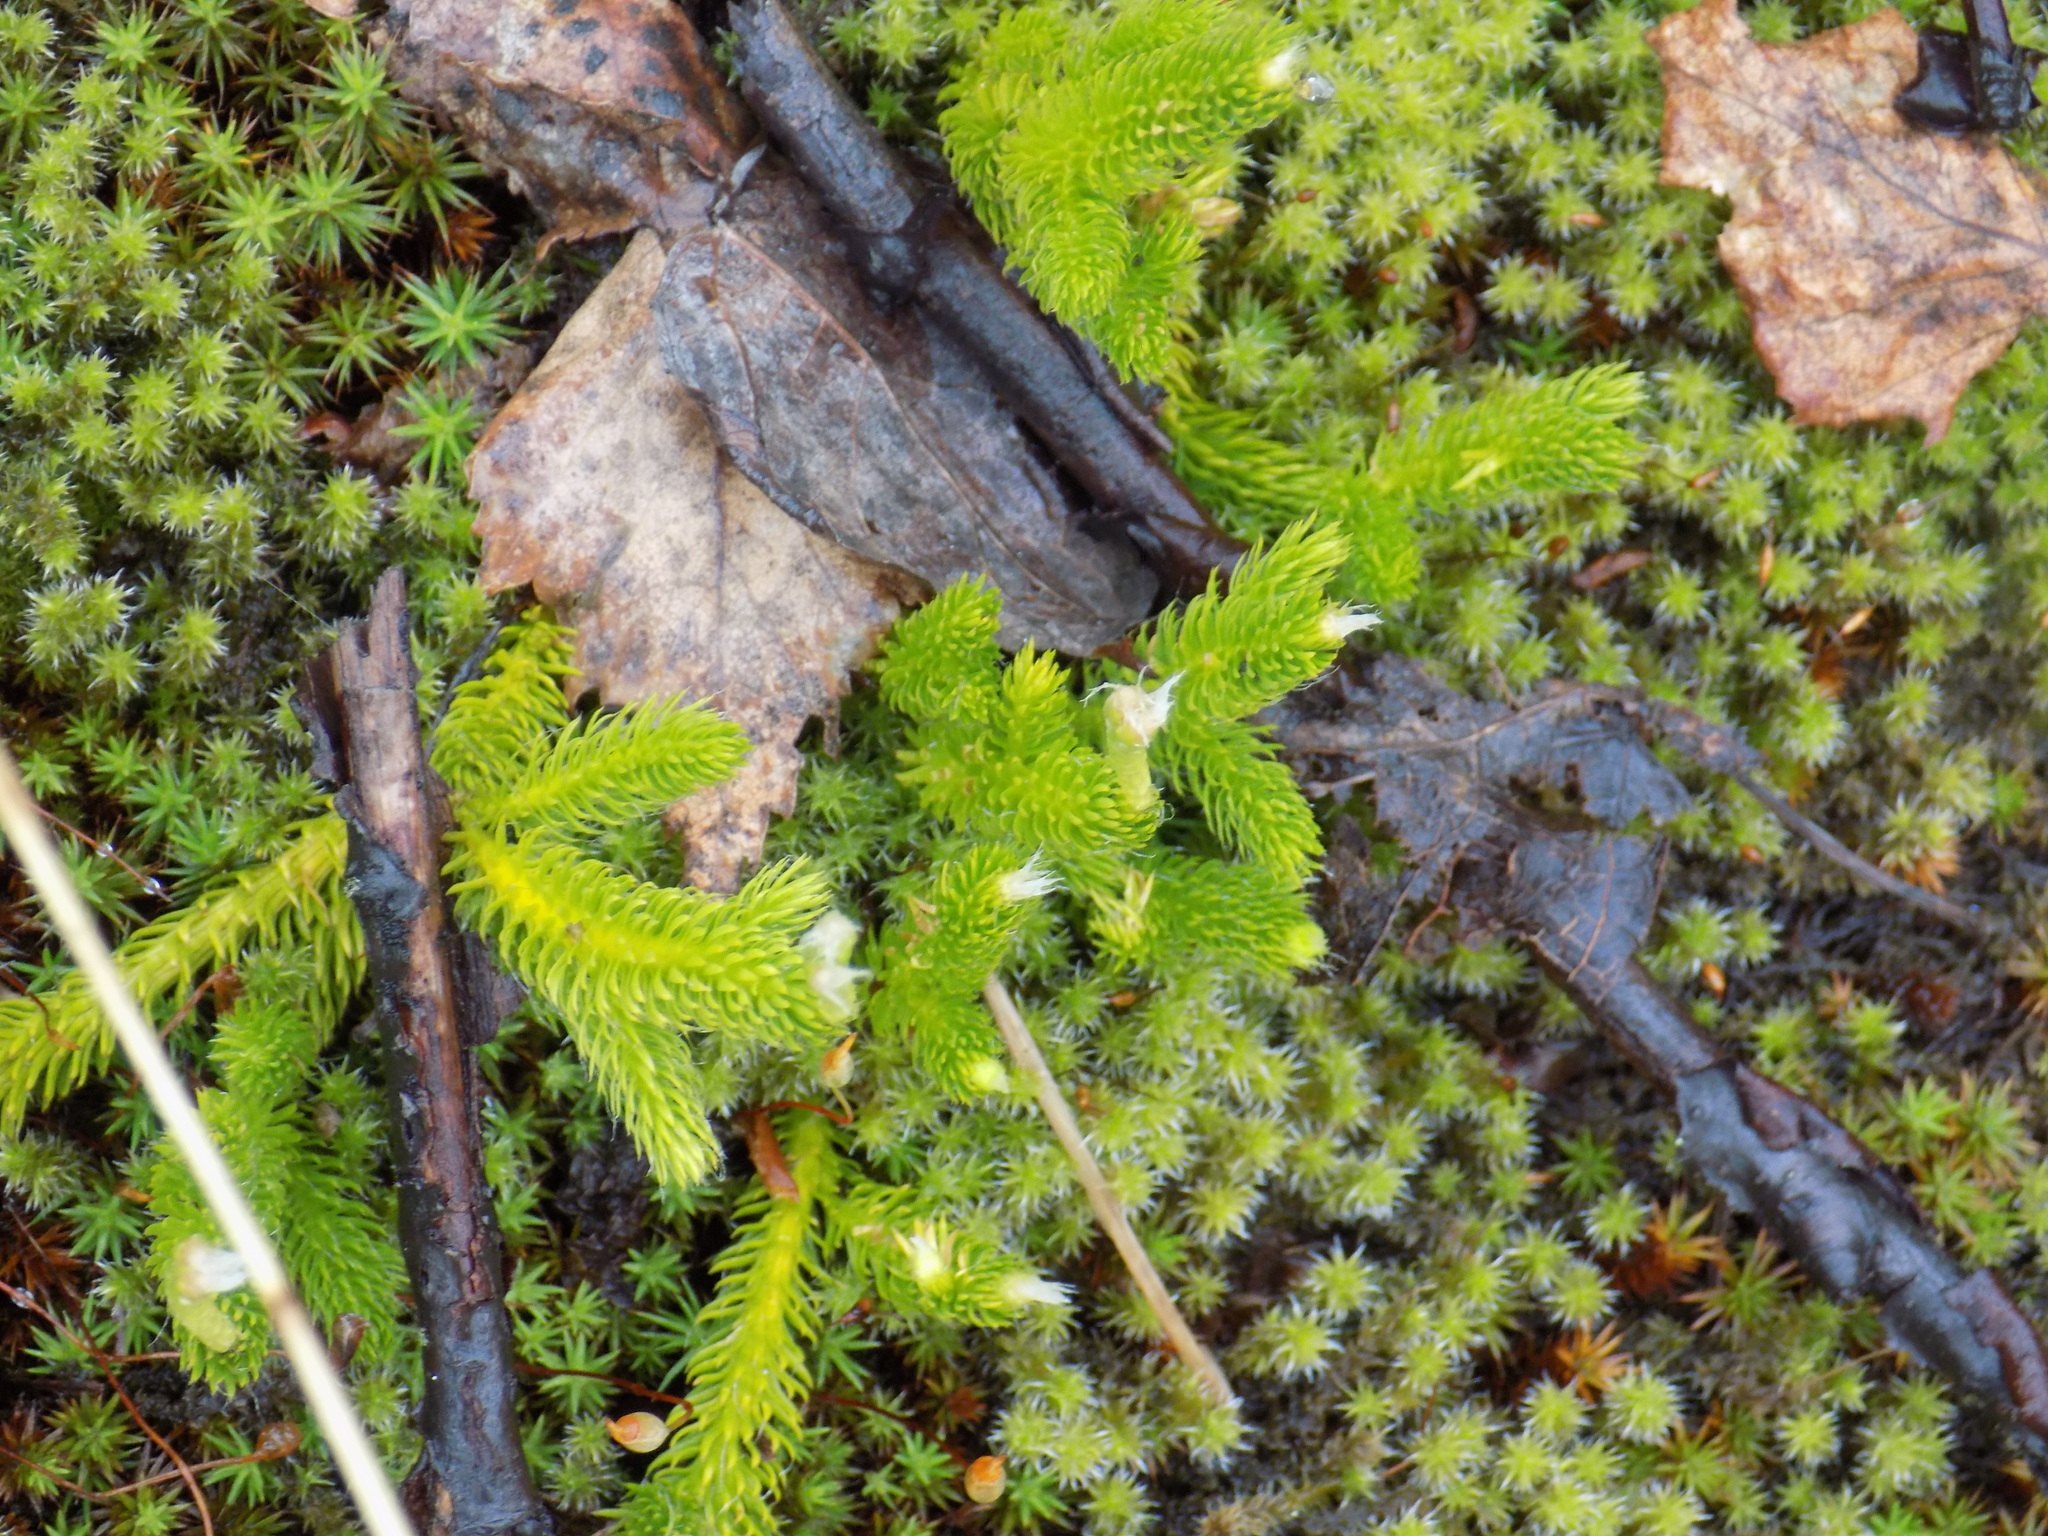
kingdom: Plantae
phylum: Tracheophyta
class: Lycopodiopsida
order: Lycopodiales
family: Lycopodiaceae
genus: Lycopodium
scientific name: Lycopodium lagopus
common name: One-cone clubmoss
